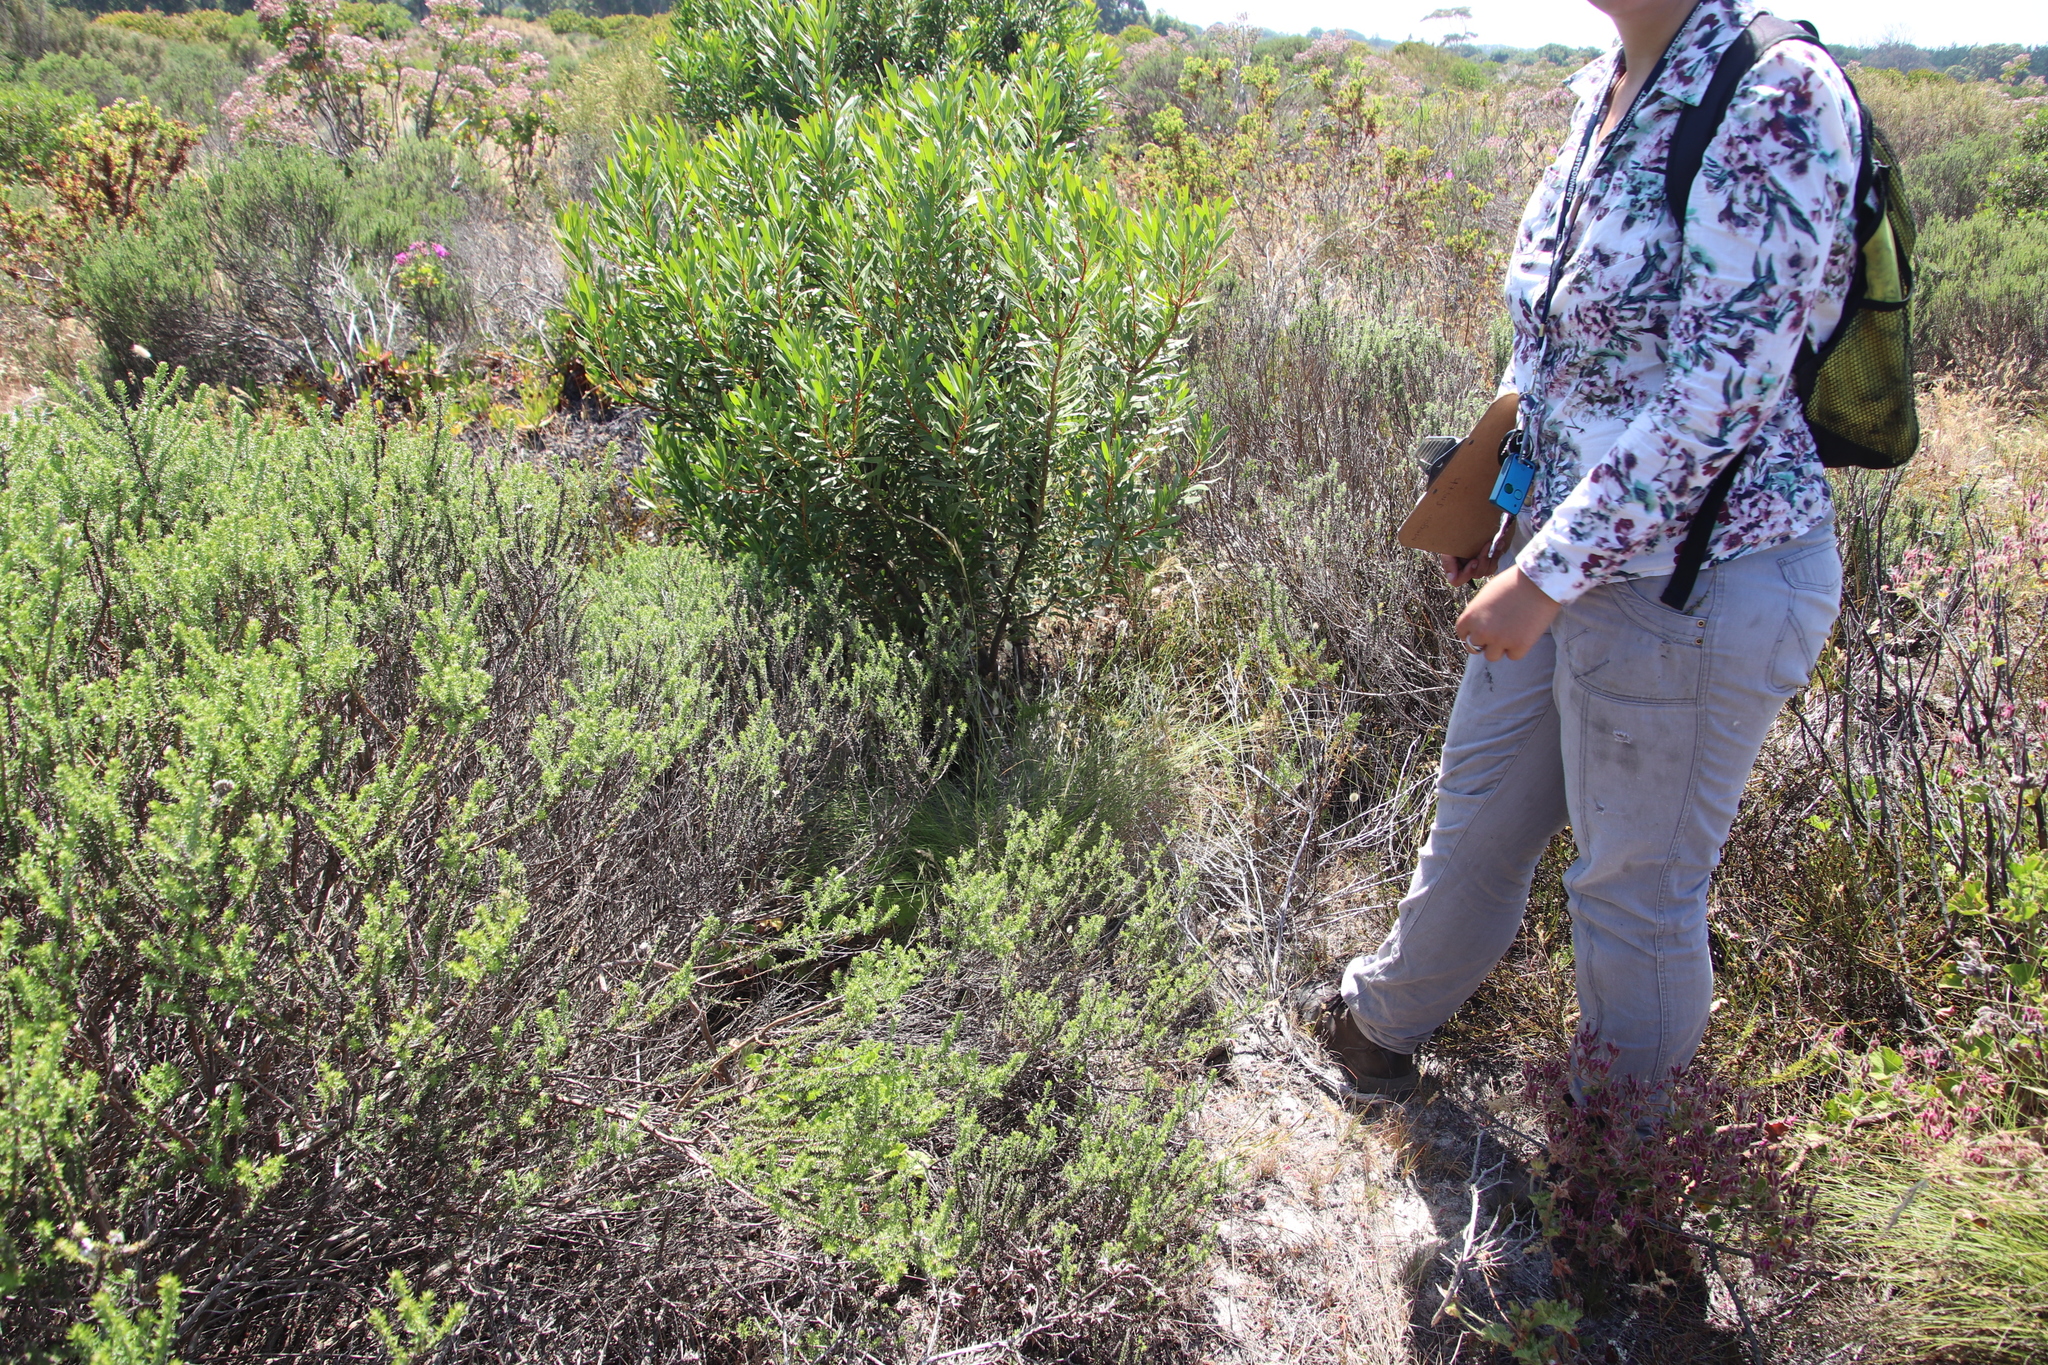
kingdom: Plantae
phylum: Tracheophyta
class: Magnoliopsida
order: Proteales
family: Proteaceae
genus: Protea
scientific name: Protea repens
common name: Sugarbush
